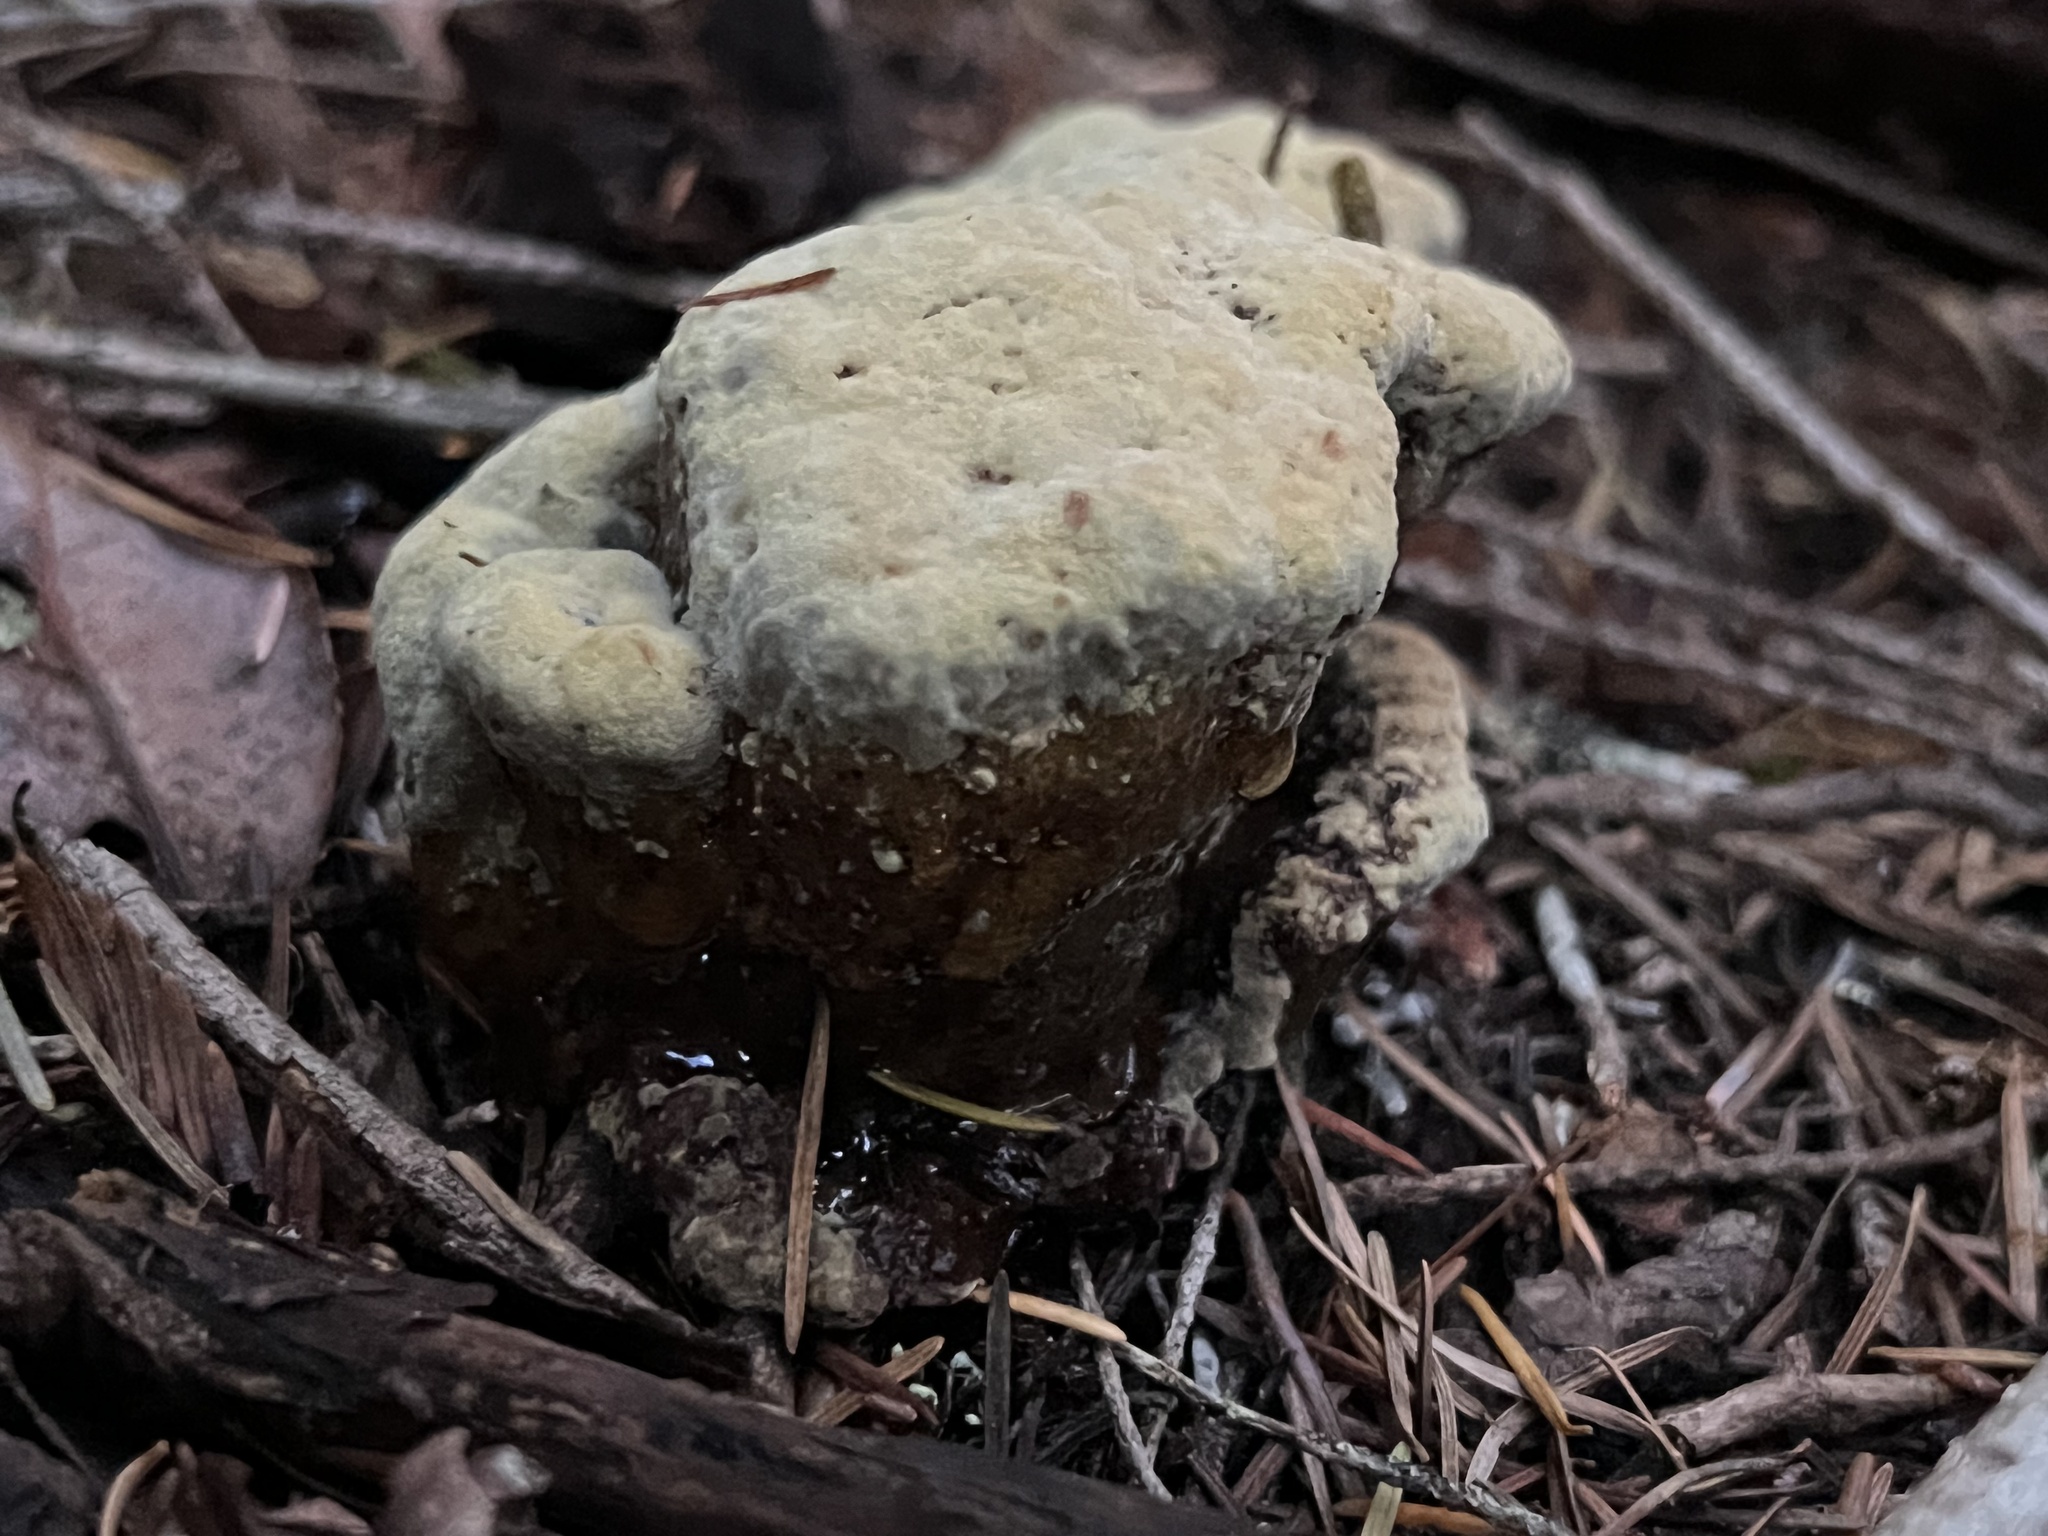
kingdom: Fungi
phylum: Basidiomycota
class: Agaricomycetes
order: Polyporales
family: Laetiporaceae
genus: Phaeolus
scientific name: Phaeolus schweinitzii
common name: Dyer's mazegill
